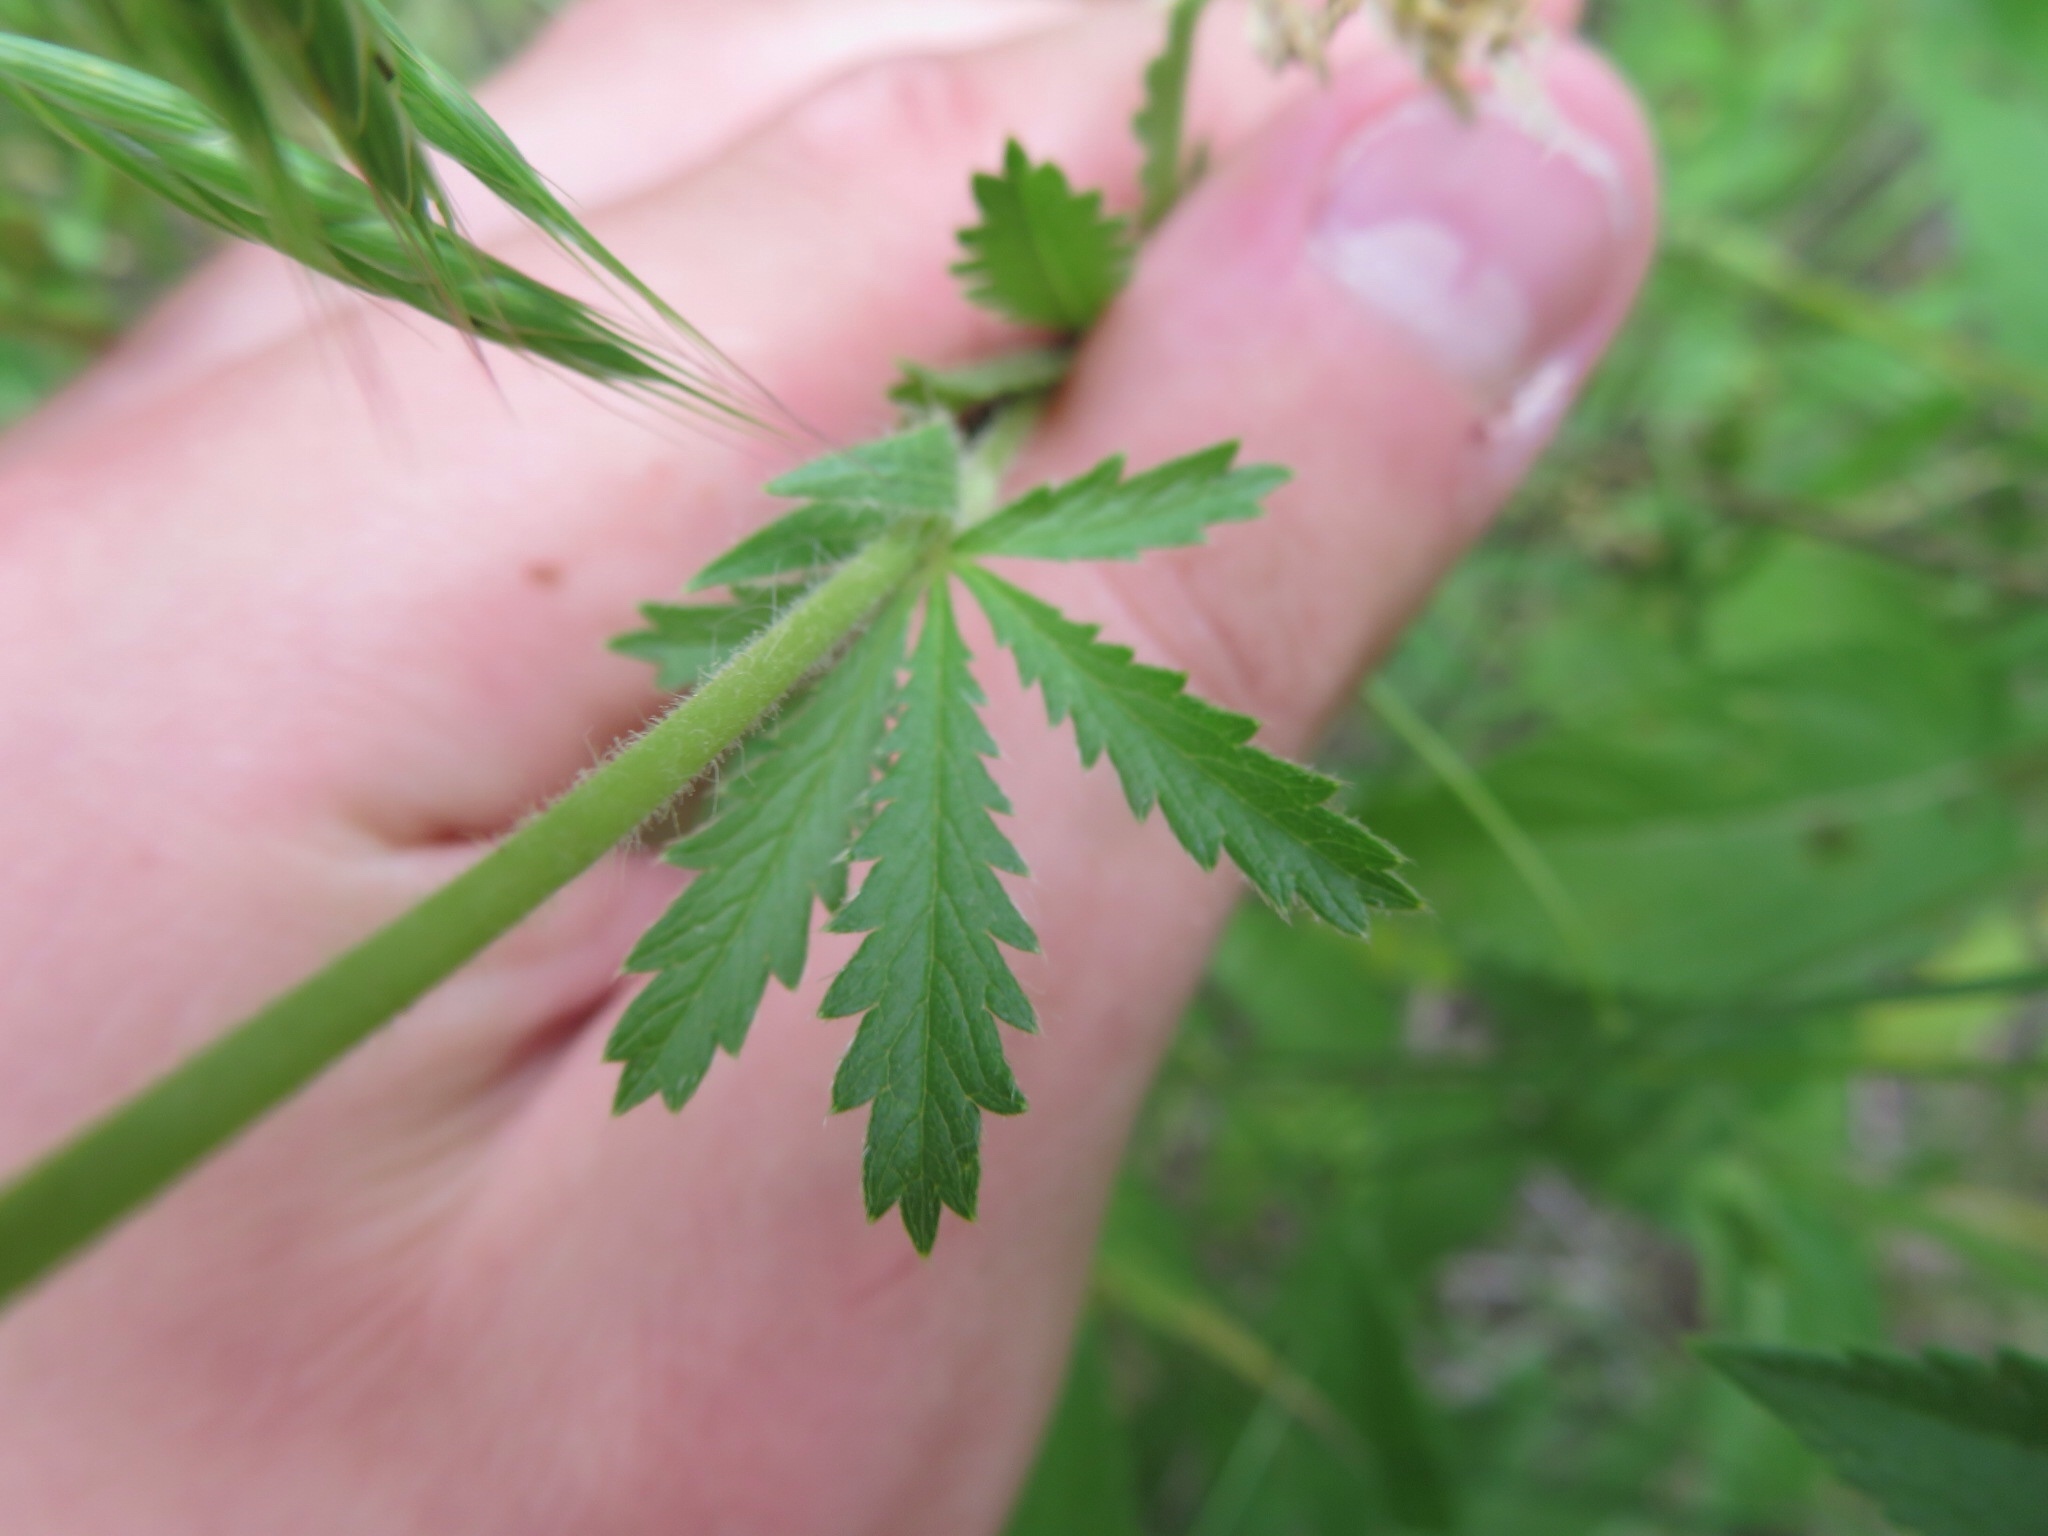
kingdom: Plantae
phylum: Tracheophyta
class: Magnoliopsida
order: Rosales
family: Rosaceae
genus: Potentilla
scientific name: Potentilla recta
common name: Sulphur cinquefoil
